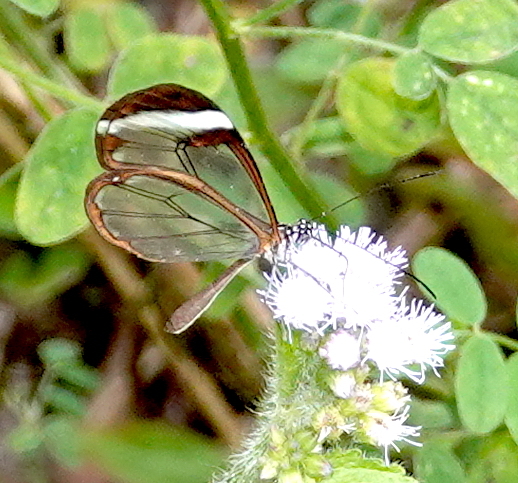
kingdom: Animalia
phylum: Arthropoda
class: Insecta
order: Lepidoptera
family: Nymphalidae
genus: Greta
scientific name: Greta morgane
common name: Thick-tipped greta
